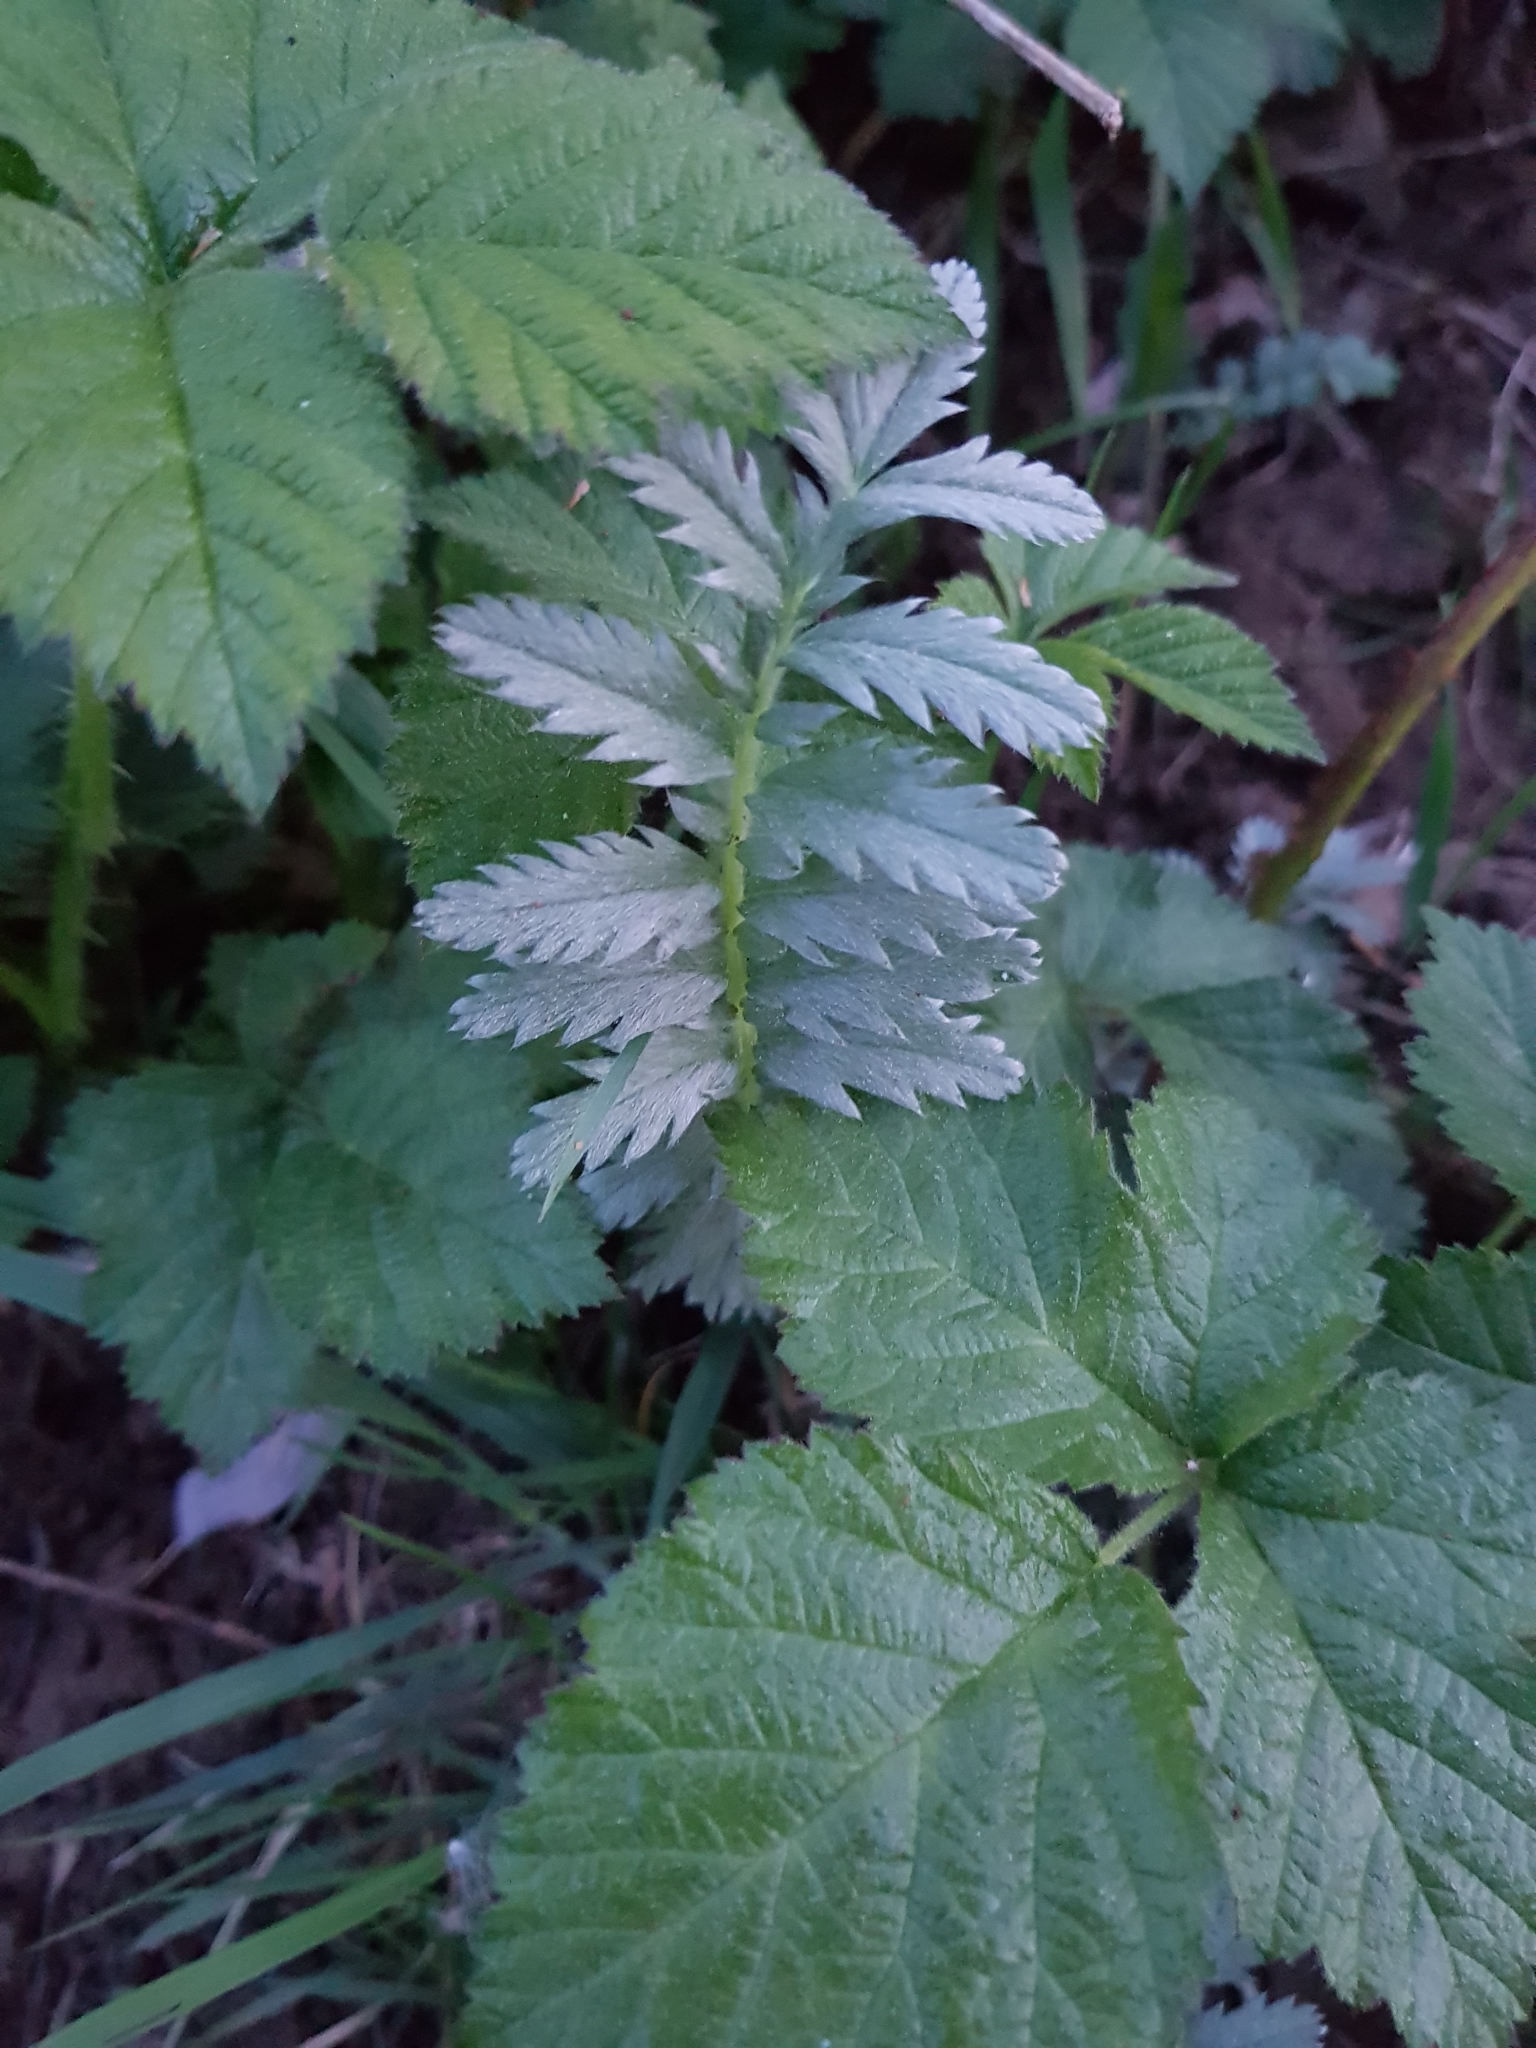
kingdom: Plantae
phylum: Tracheophyta
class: Magnoliopsida
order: Rosales
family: Rosaceae
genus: Argentina
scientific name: Argentina anserina
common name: Common silverweed
